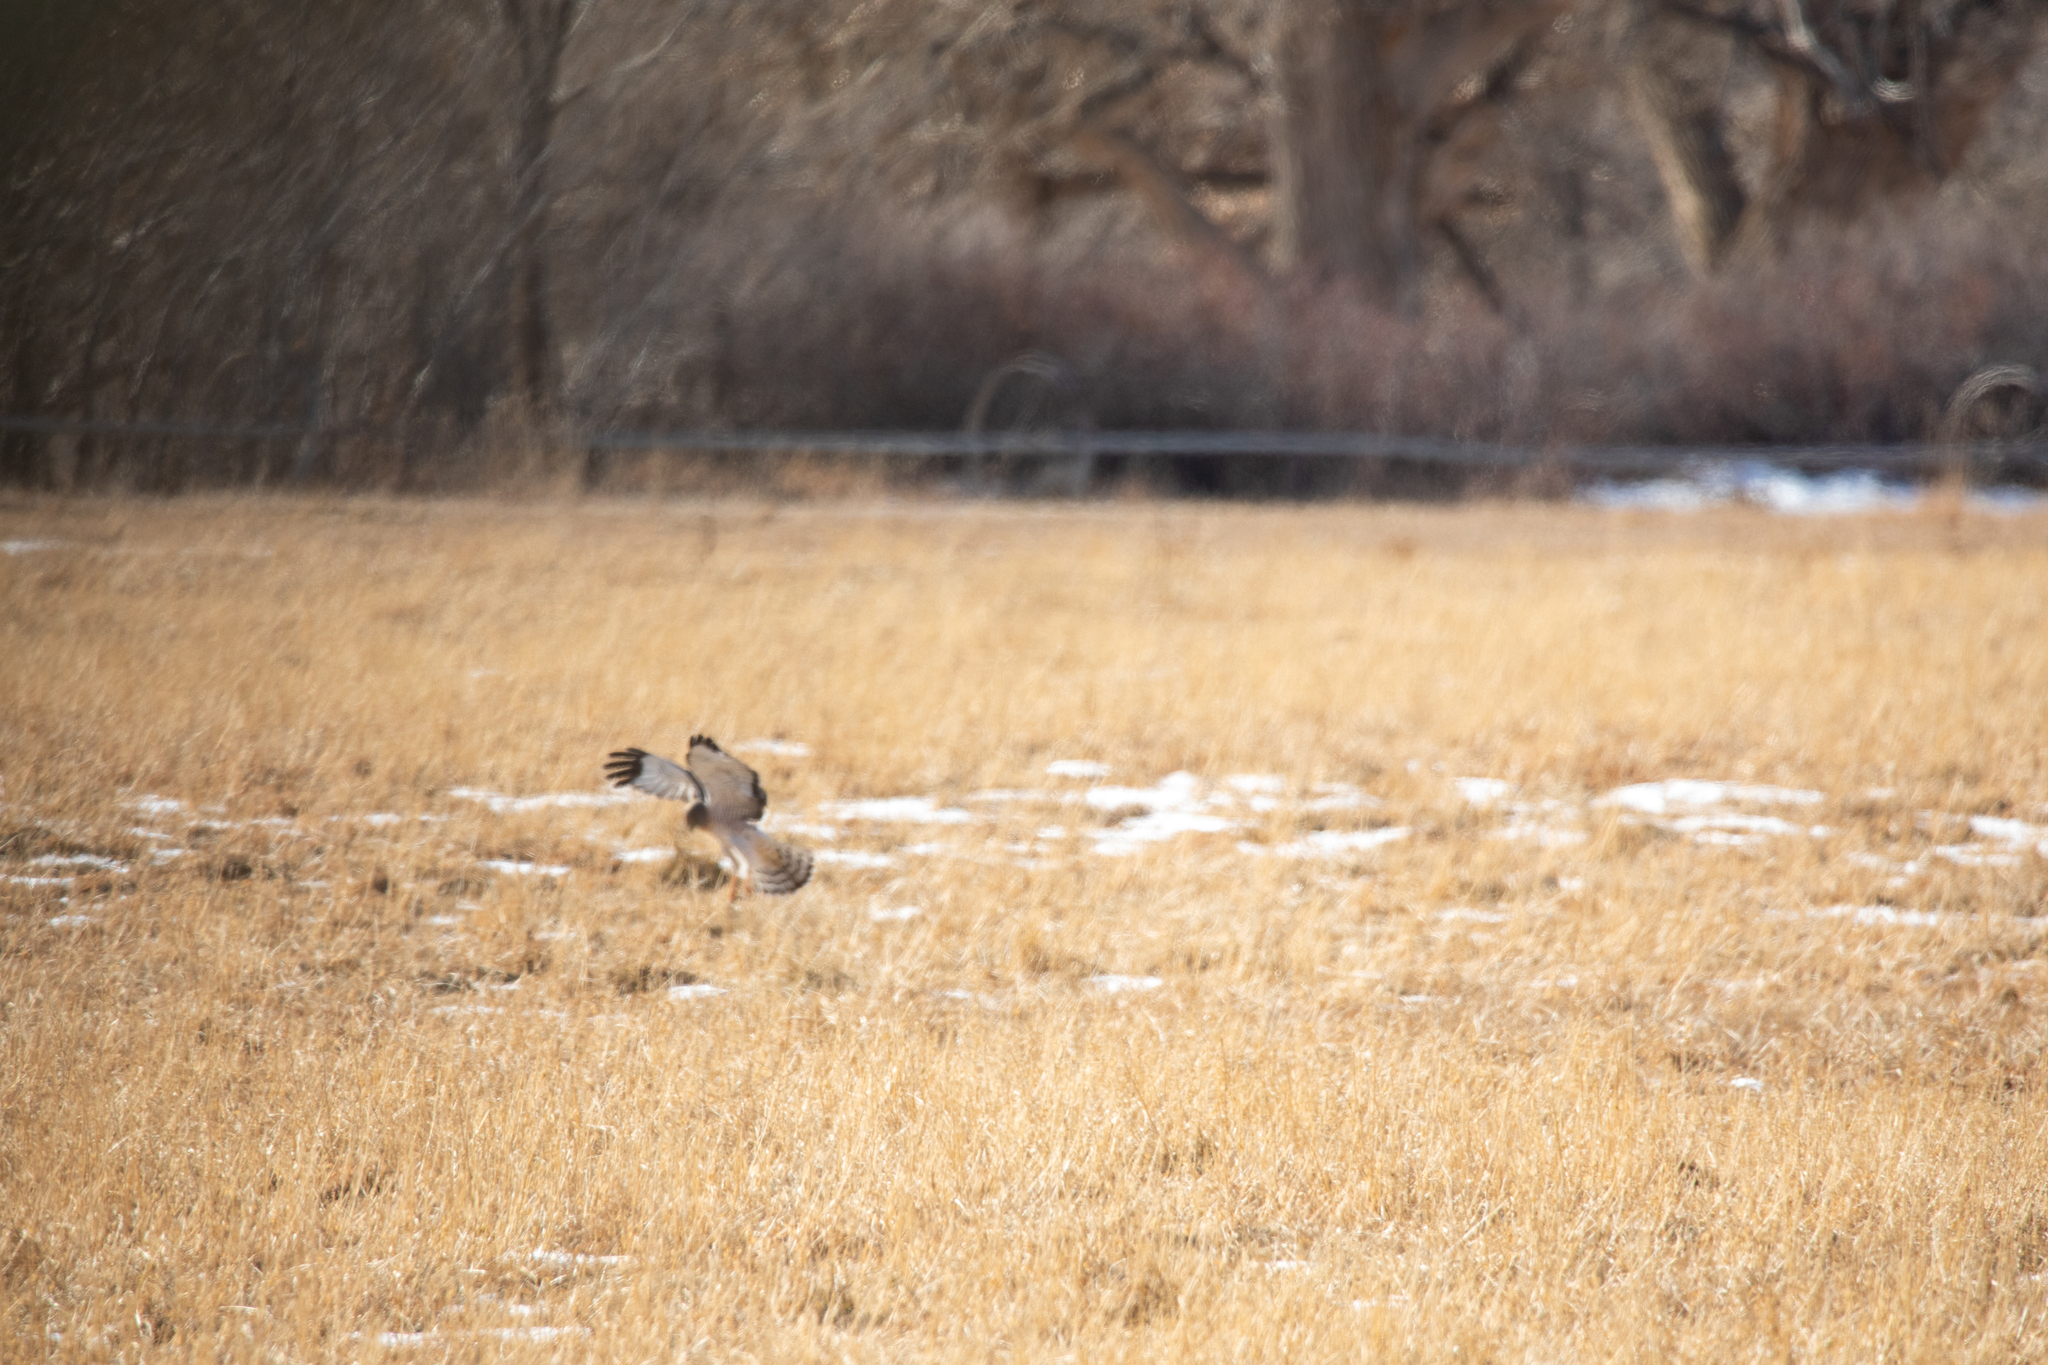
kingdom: Animalia
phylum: Chordata
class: Aves
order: Accipitriformes
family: Accipitridae
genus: Circus
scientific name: Circus cyaneus
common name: Hen harrier
